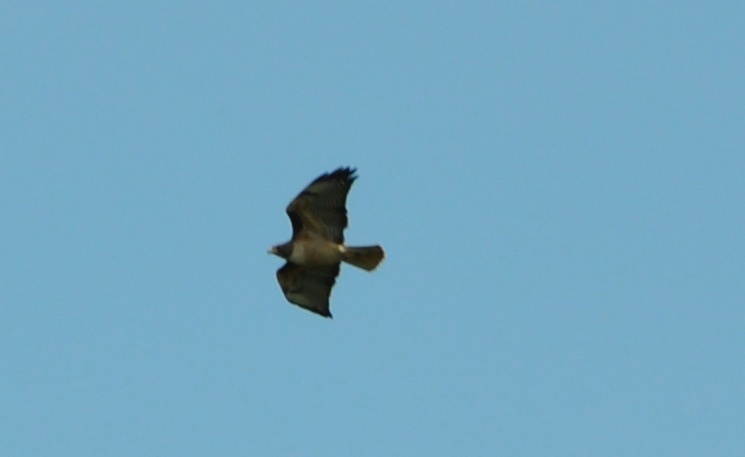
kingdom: Animalia
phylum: Chordata
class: Aves
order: Accipitriformes
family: Accipitridae
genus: Buteo
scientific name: Buteo jamaicensis
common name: Red-tailed hawk
